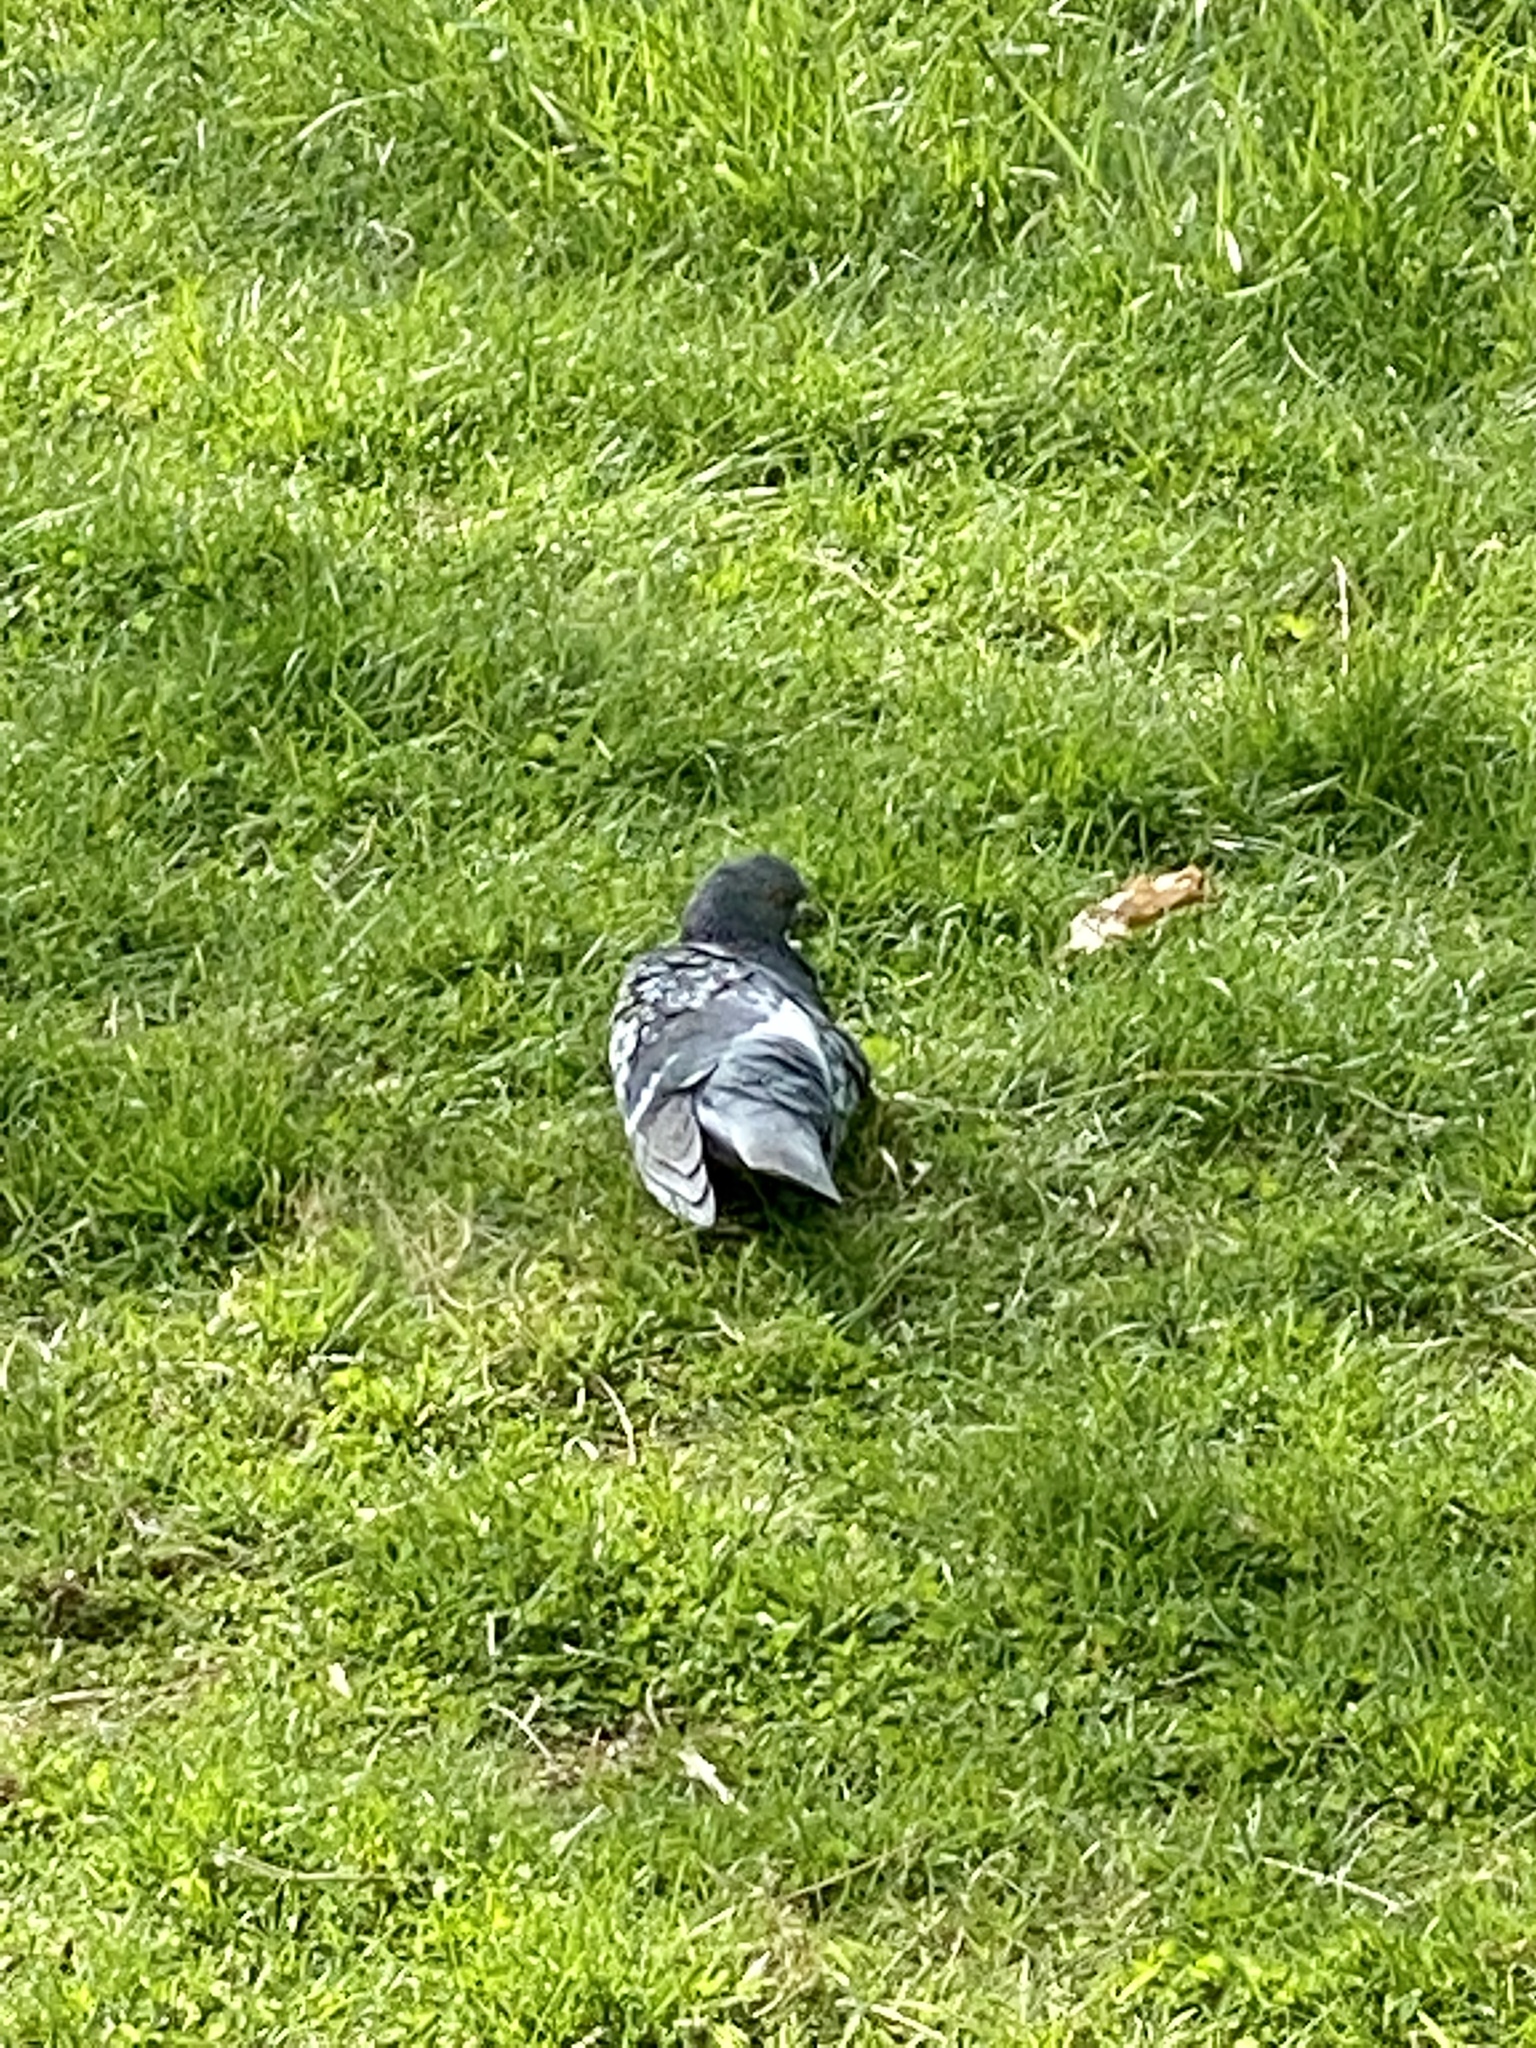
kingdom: Animalia
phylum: Chordata
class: Aves
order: Columbiformes
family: Columbidae
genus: Columba
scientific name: Columba livia
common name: Rock pigeon
